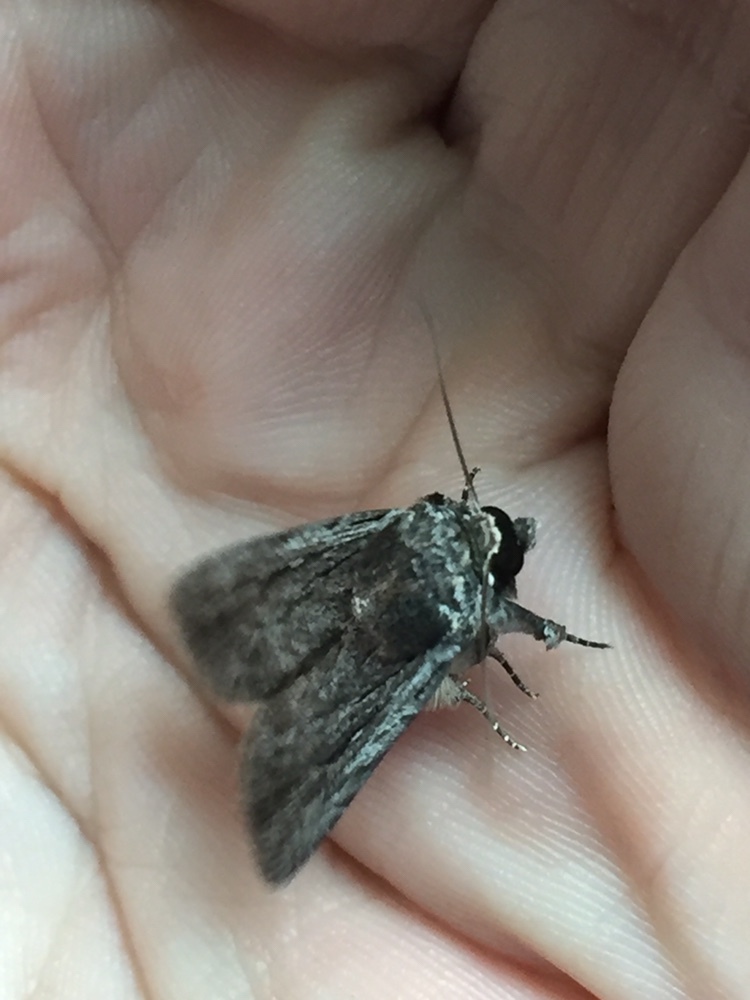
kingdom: Animalia
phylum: Arthropoda
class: Insecta
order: Lepidoptera
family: Noctuidae
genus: Neogalea
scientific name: Neogalea sunia
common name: Lantana stick caterpillar
